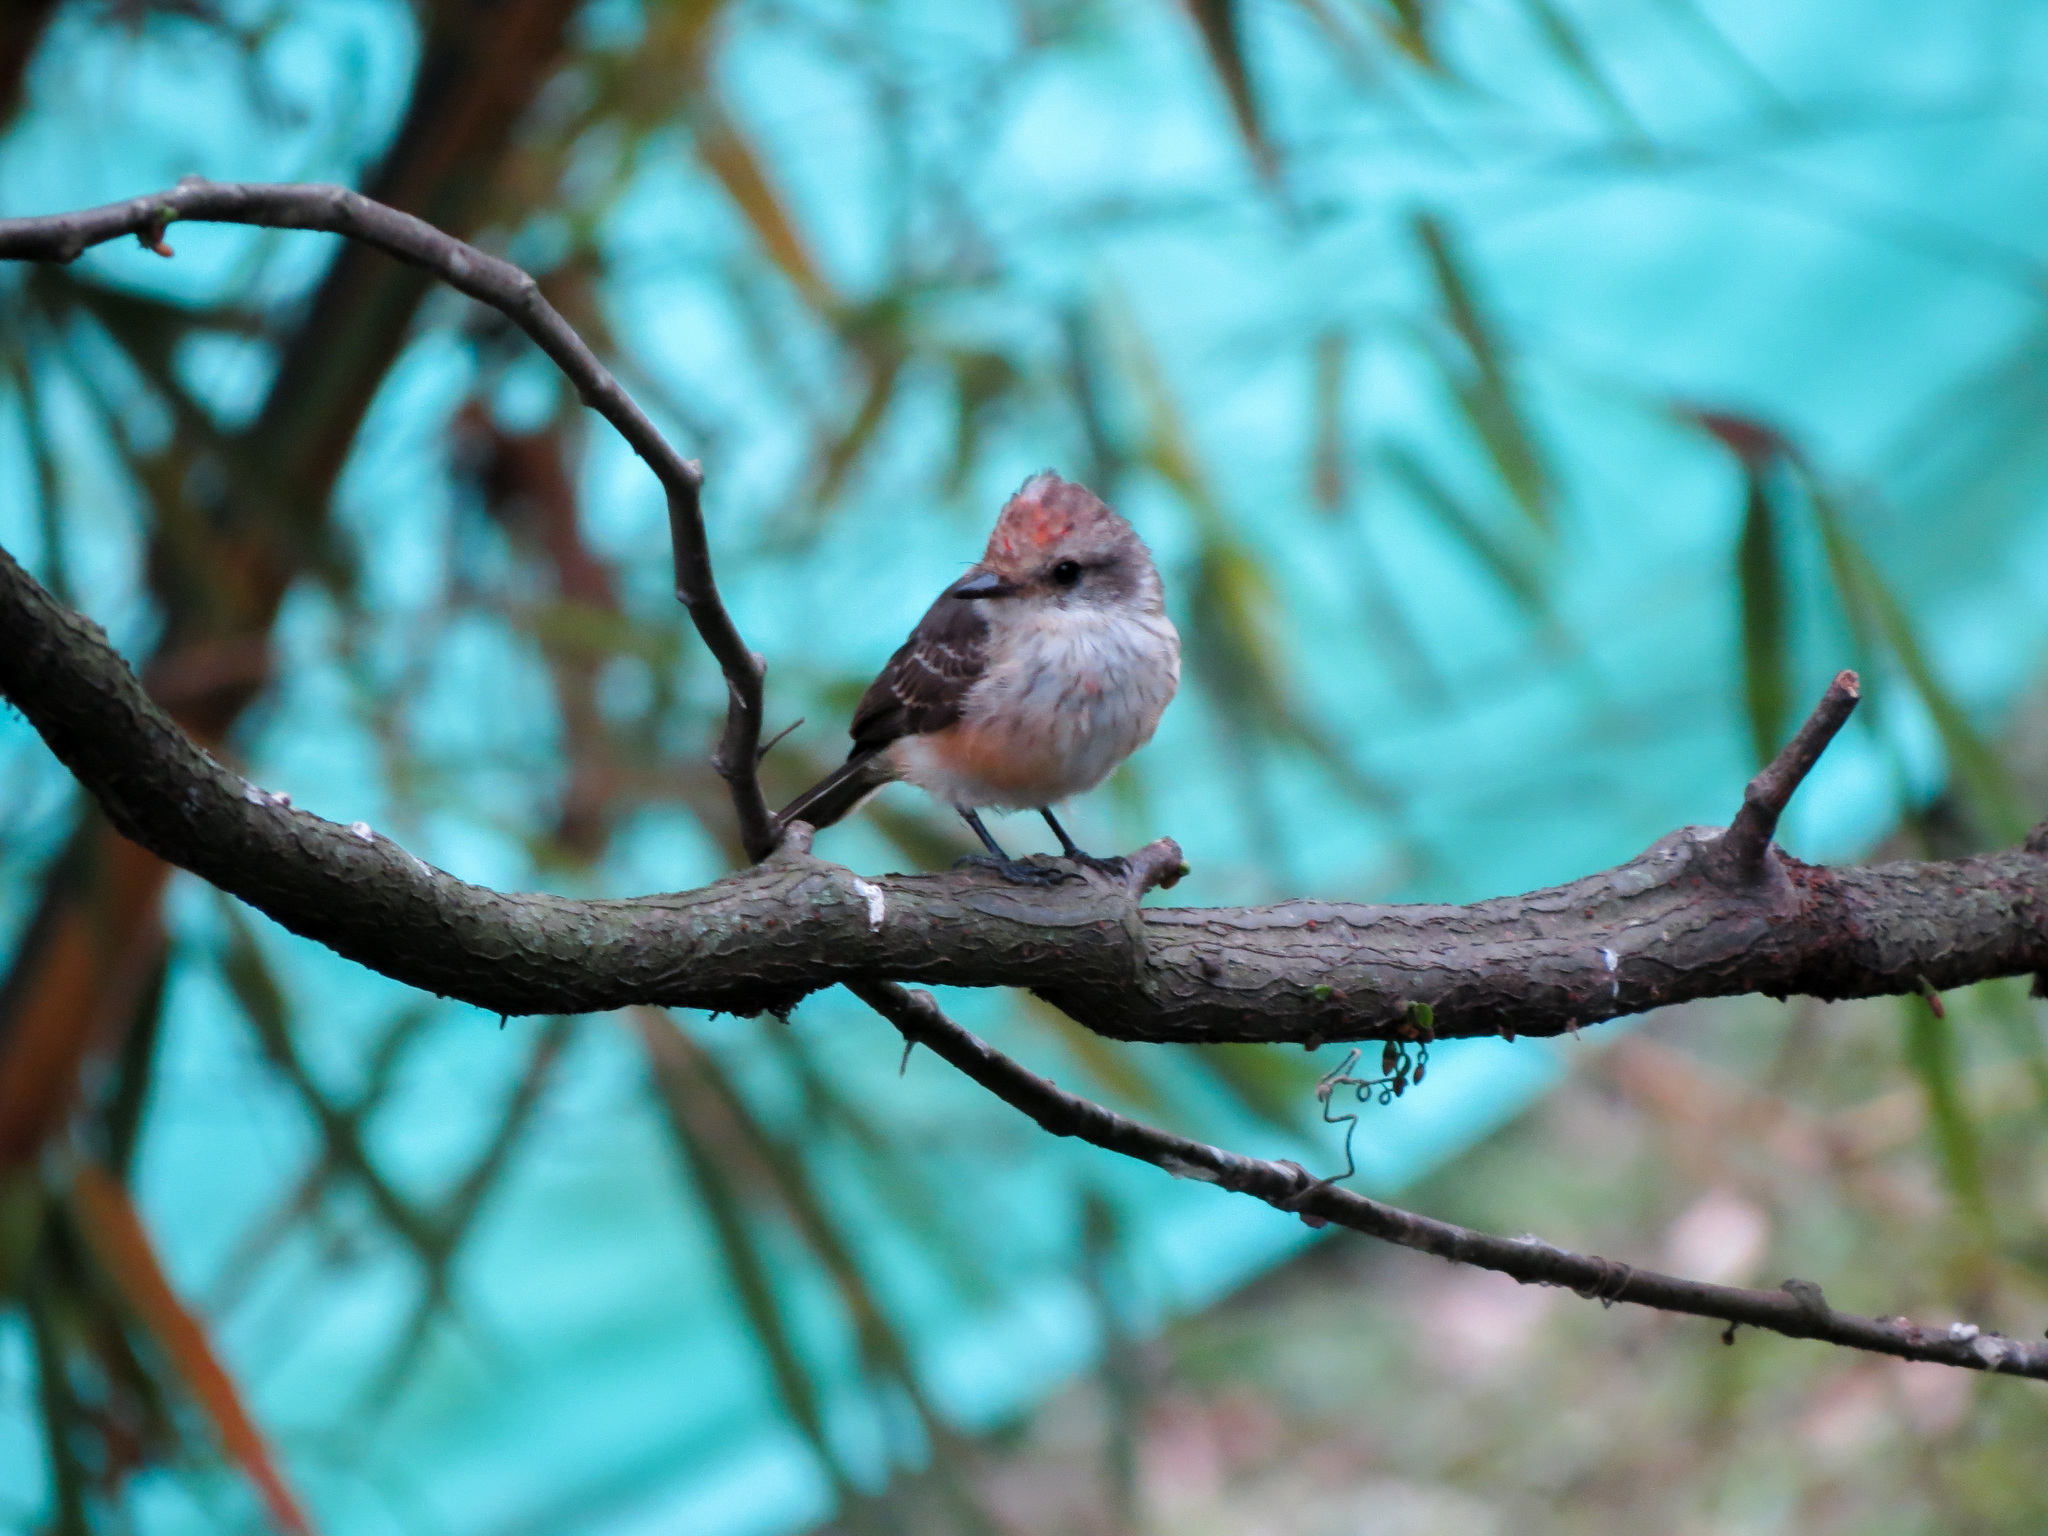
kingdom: Animalia
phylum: Chordata
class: Aves
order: Passeriformes
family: Tyrannidae
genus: Pyrocephalus
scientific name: Pyrocephalus rubinus
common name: Vermilion flycatcher
